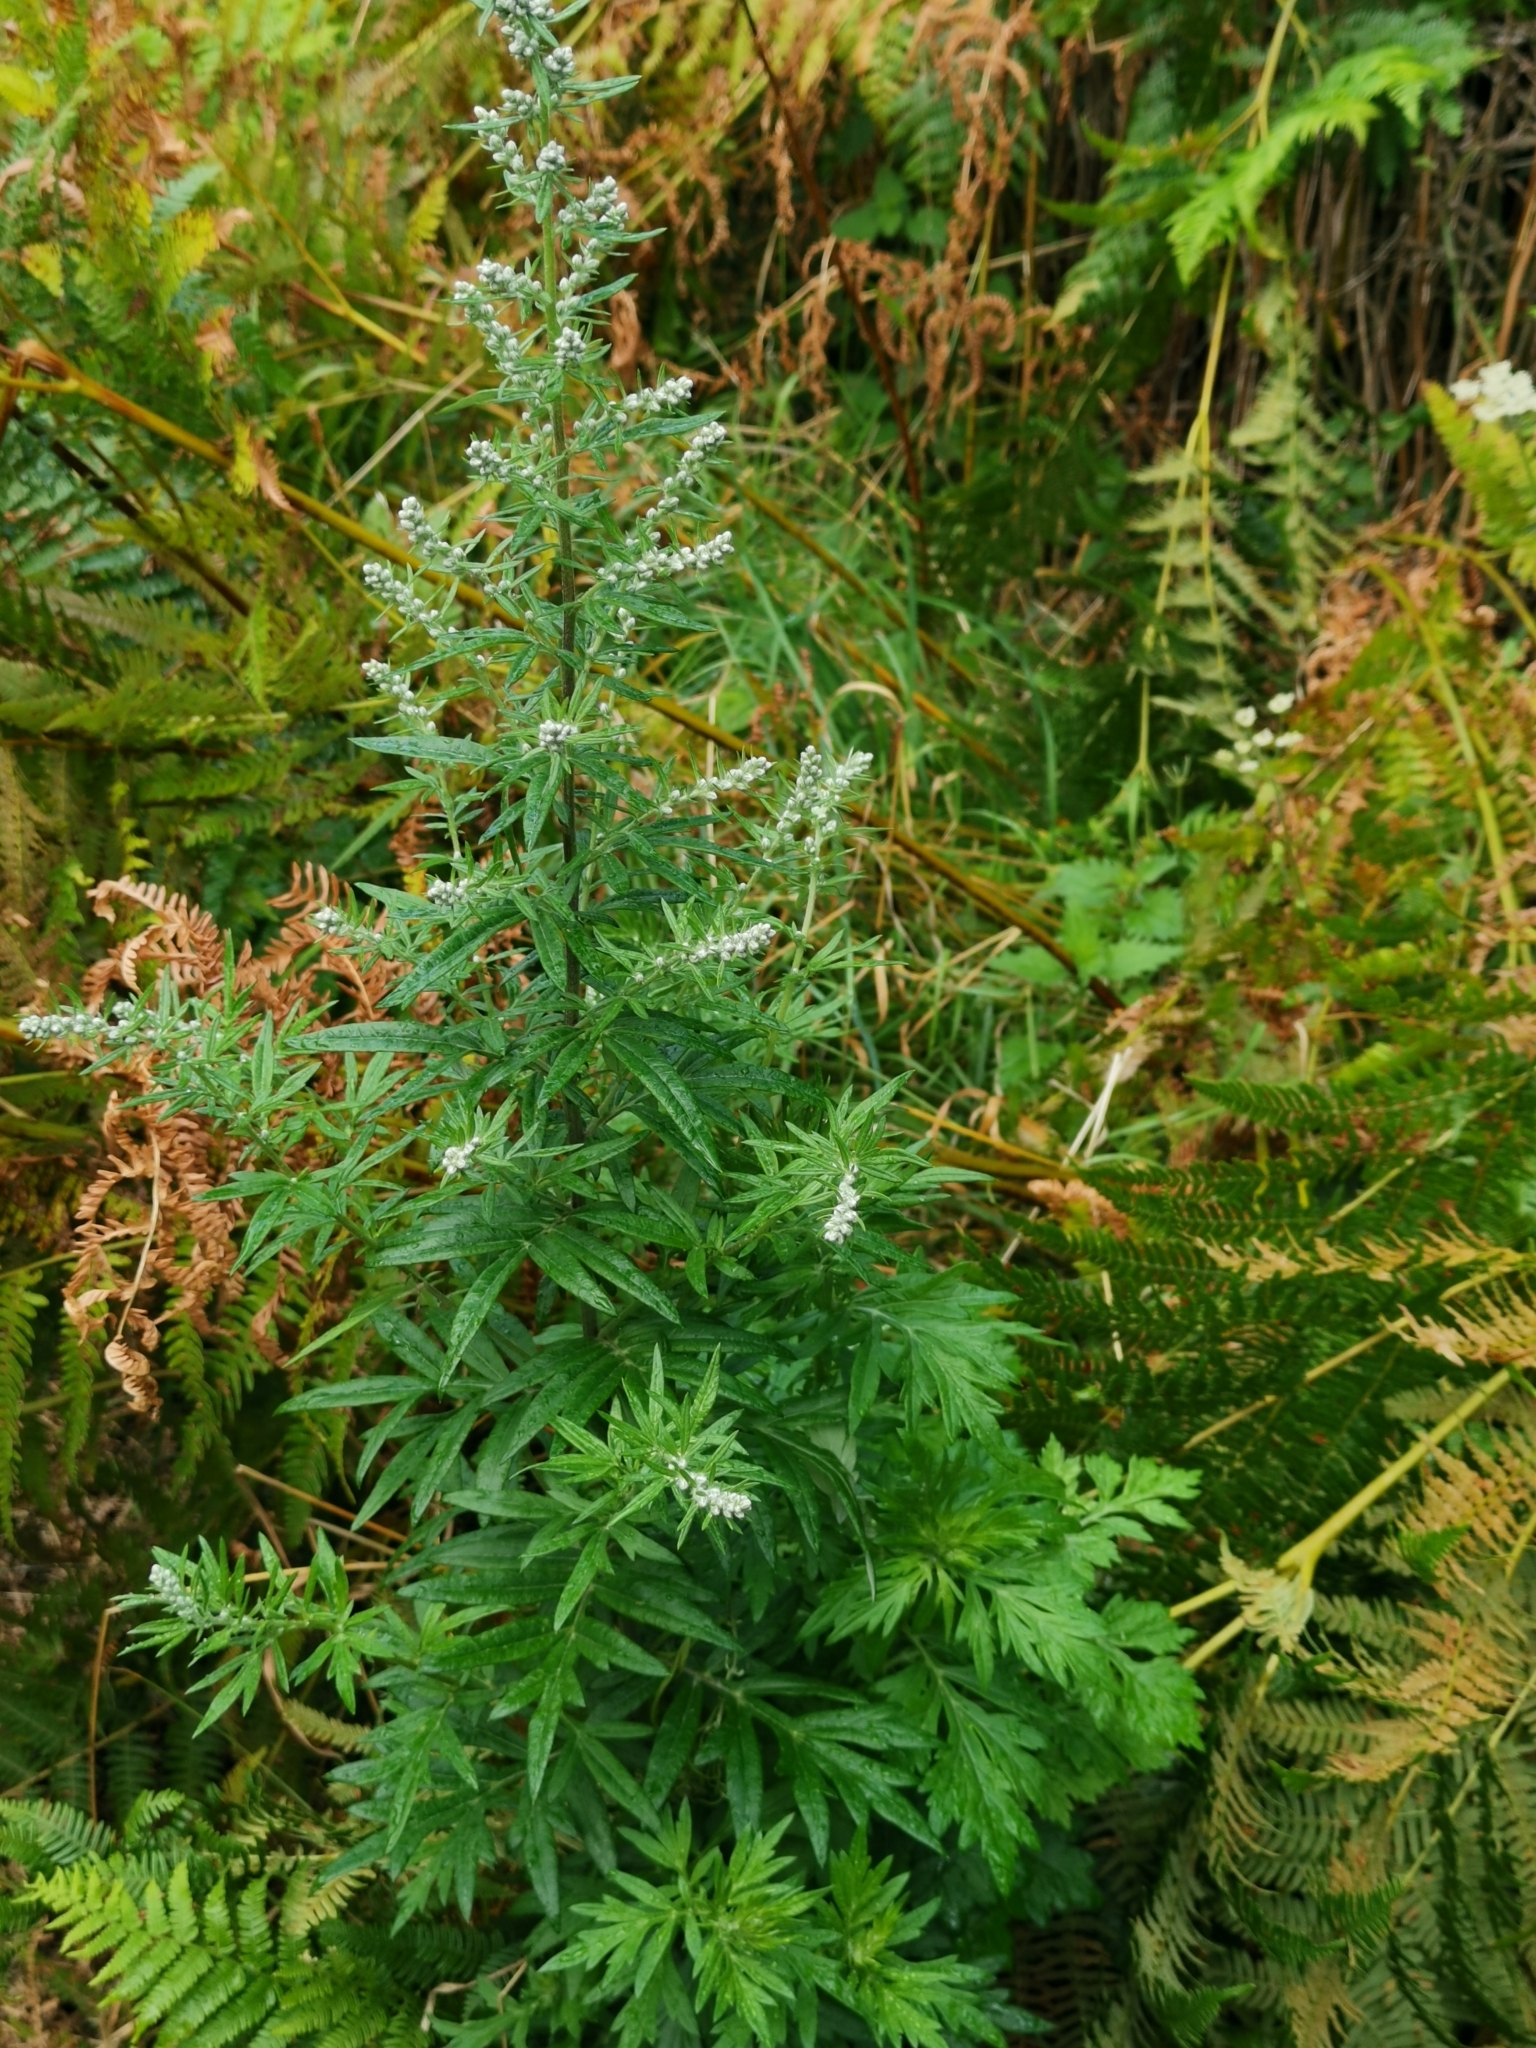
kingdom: Plantae
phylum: Tracheophyta
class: Magnoliopsida
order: Asterales
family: Asteraceae
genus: Artemisia
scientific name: Artemisia vulgaris
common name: Mugwort
